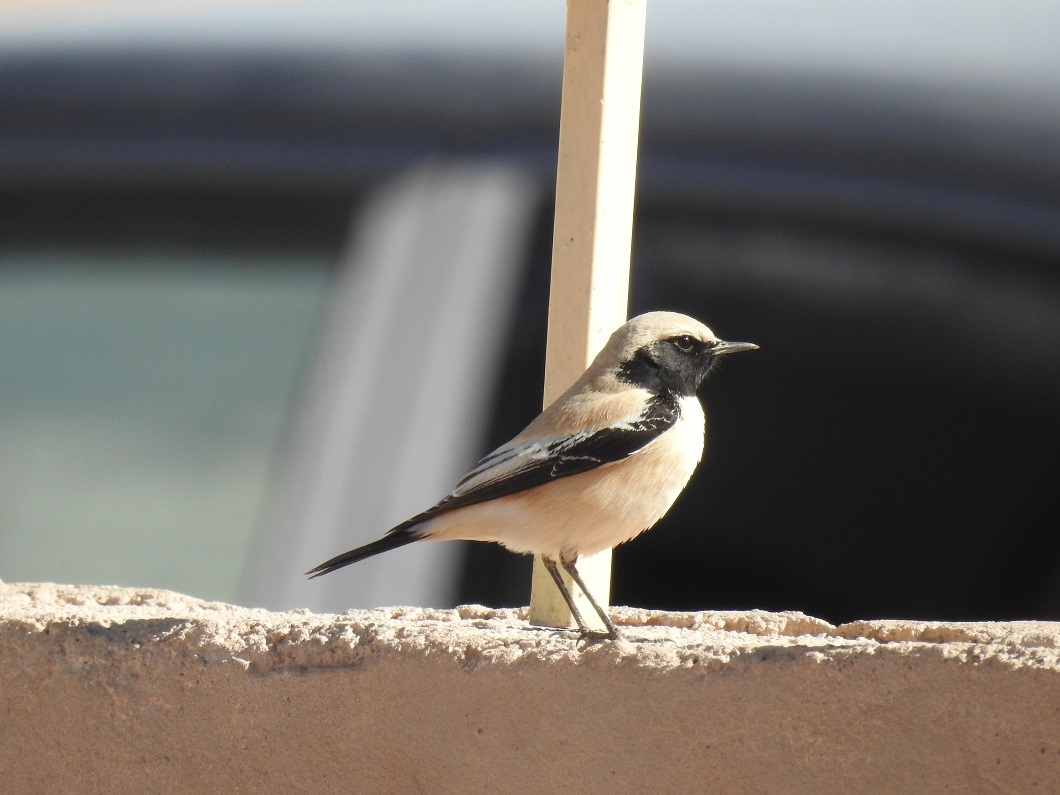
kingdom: Animalia
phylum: Chordata
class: Aves
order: Passeriformes
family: Muscicapidae
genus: Oenanthe
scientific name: Oenanthe deserti
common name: Desert wheatear
